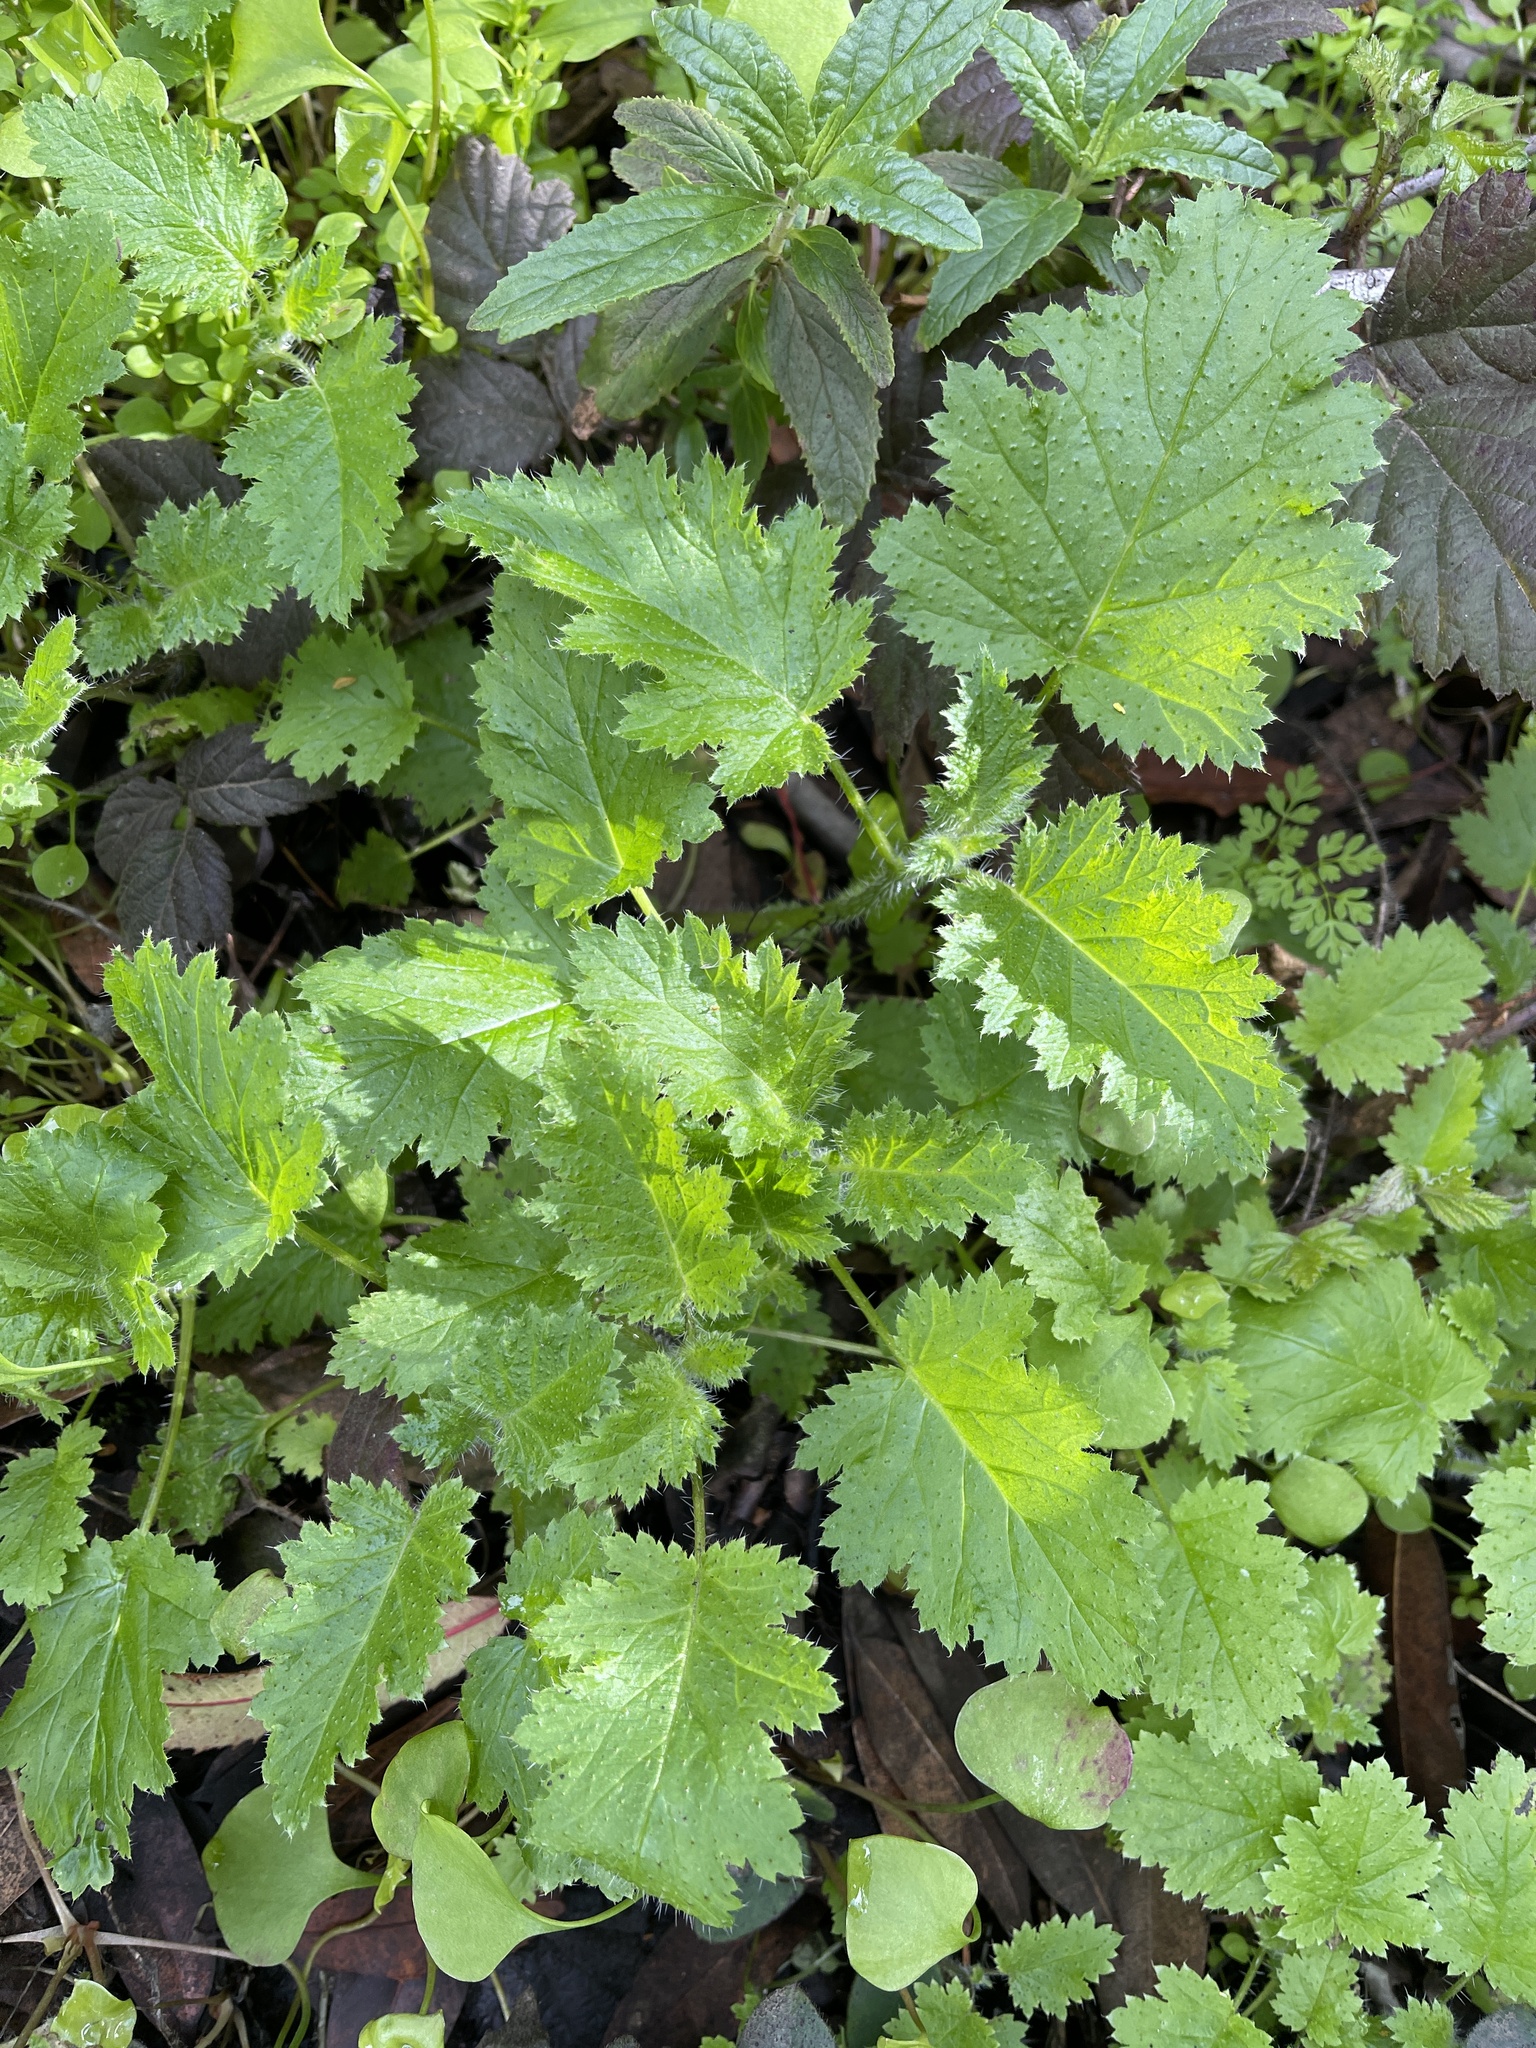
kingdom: Plantae
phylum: Tracheophyta
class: Magnoliopsida
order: Boraginales
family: Hydrophyllaceae
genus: Phacelia
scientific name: Phacelia malvifolia
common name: Mallow-leaf phacelia
